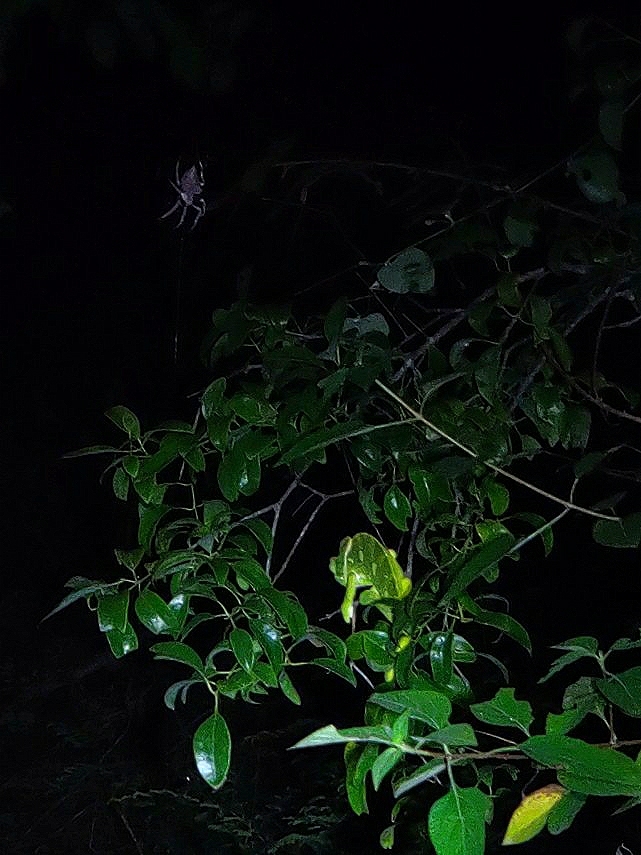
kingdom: Animalia
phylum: Chordata
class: Squamata
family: Chamaeleonidae
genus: Chamaeleo
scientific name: Chamaeleo zeylanicus
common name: Indian chameleon
